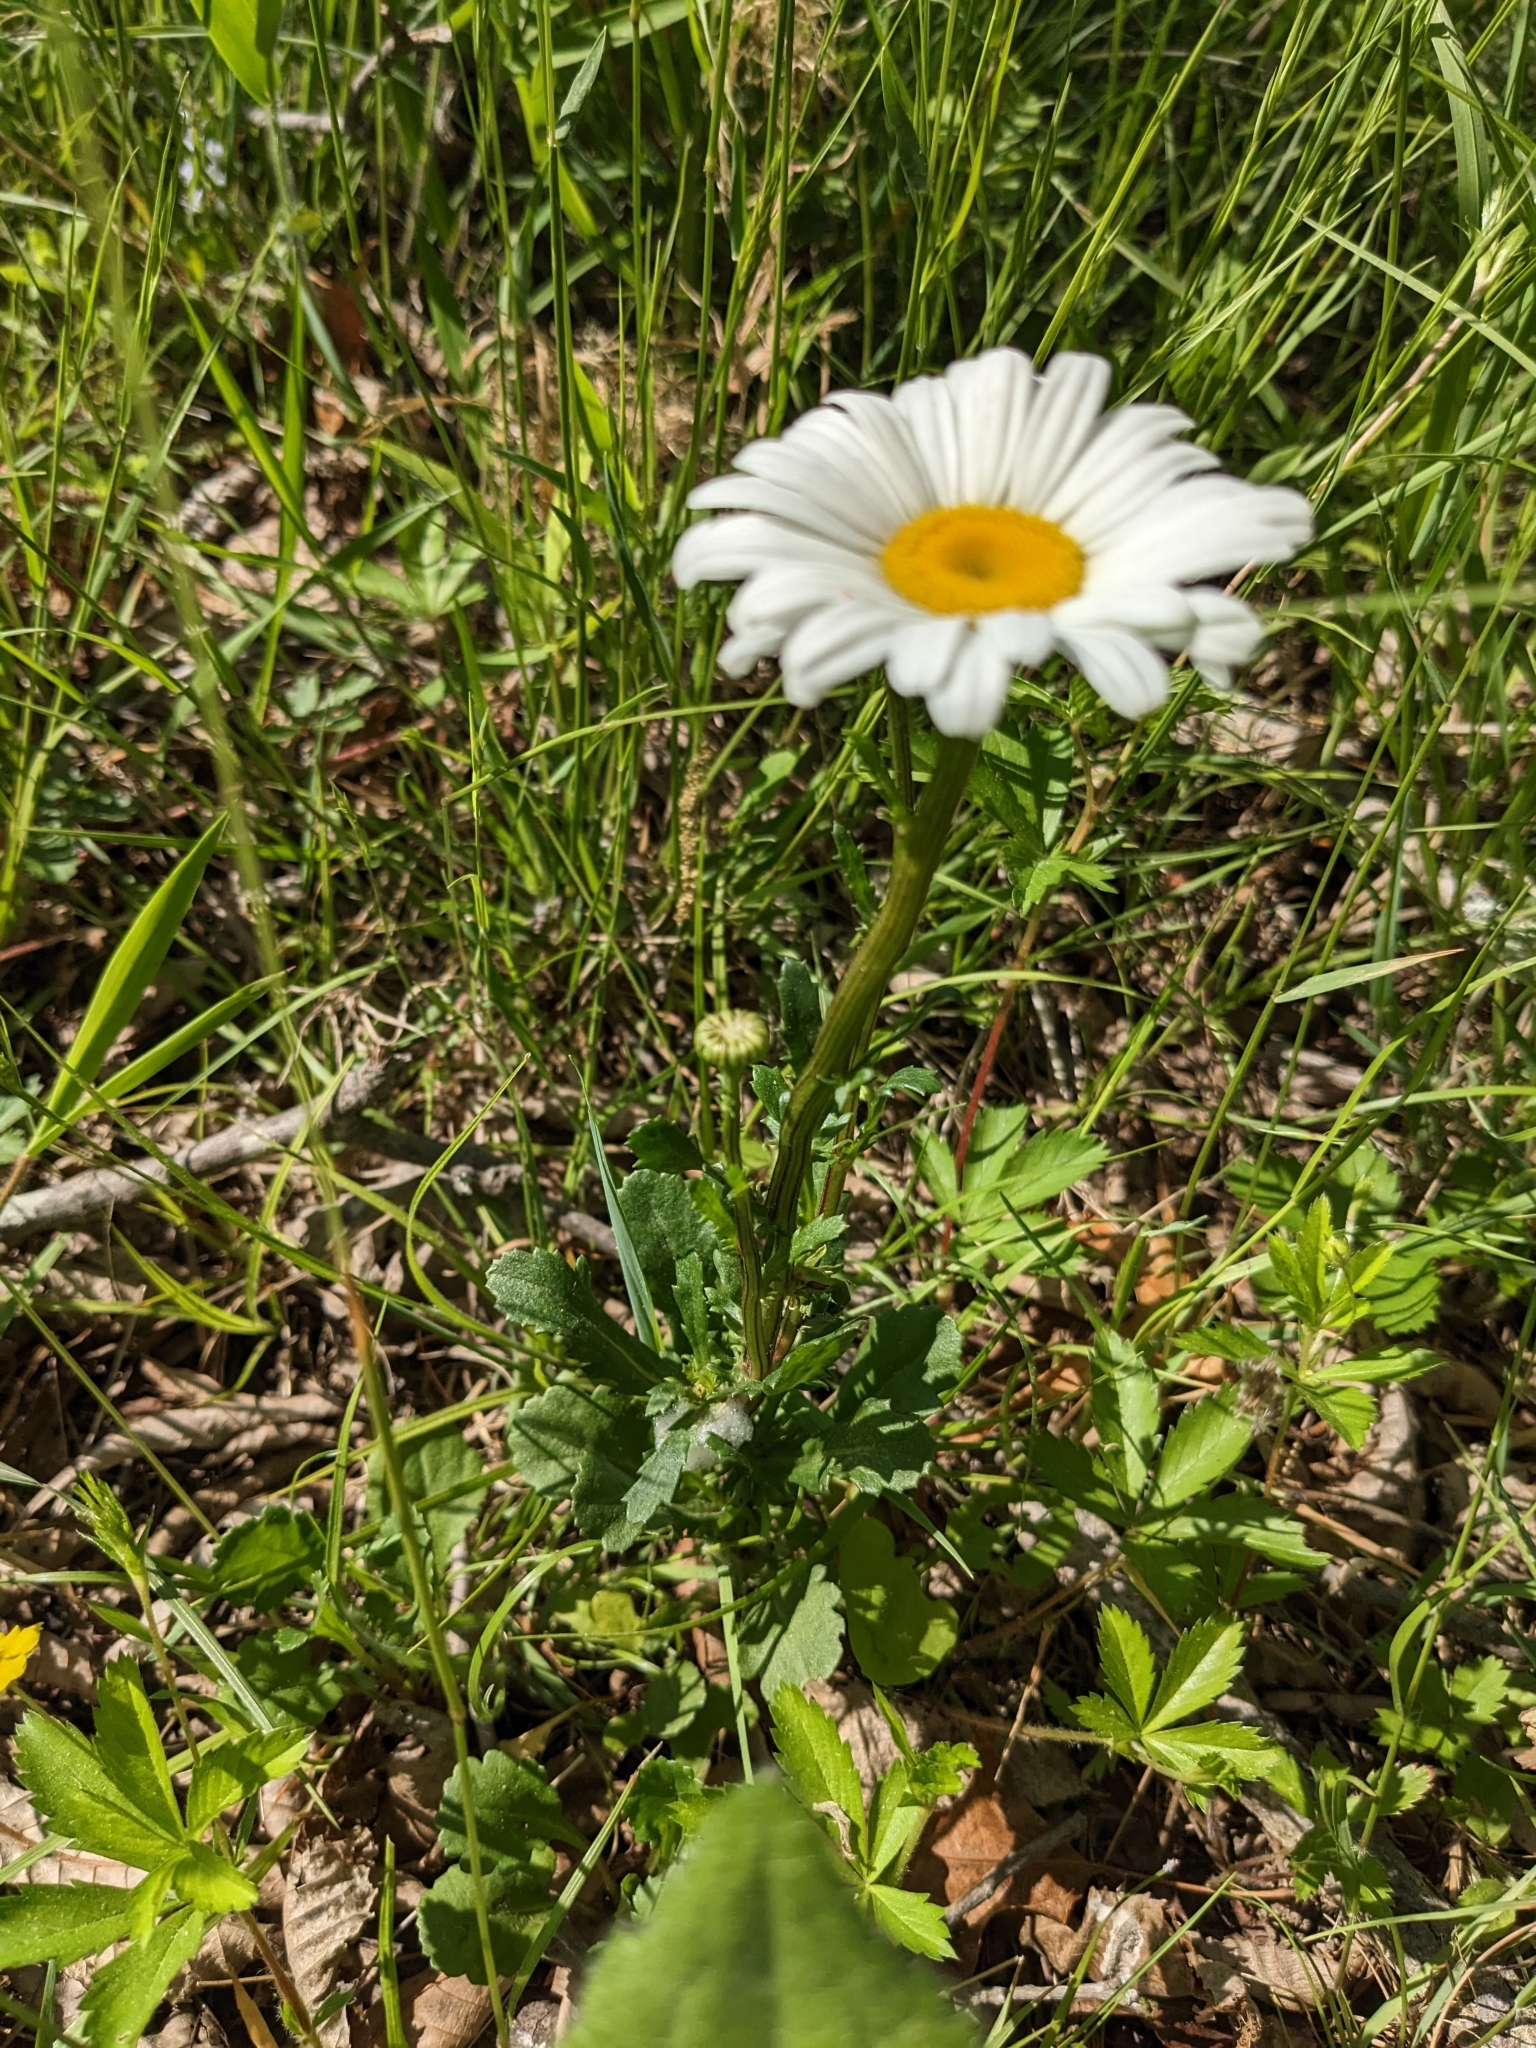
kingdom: Plantae
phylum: Tracheophyta
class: Magnoliopsida
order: Asterales
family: Asteraceae
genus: Leucanthemum
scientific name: Leucanthemum vulgare
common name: Oxeye daisy
